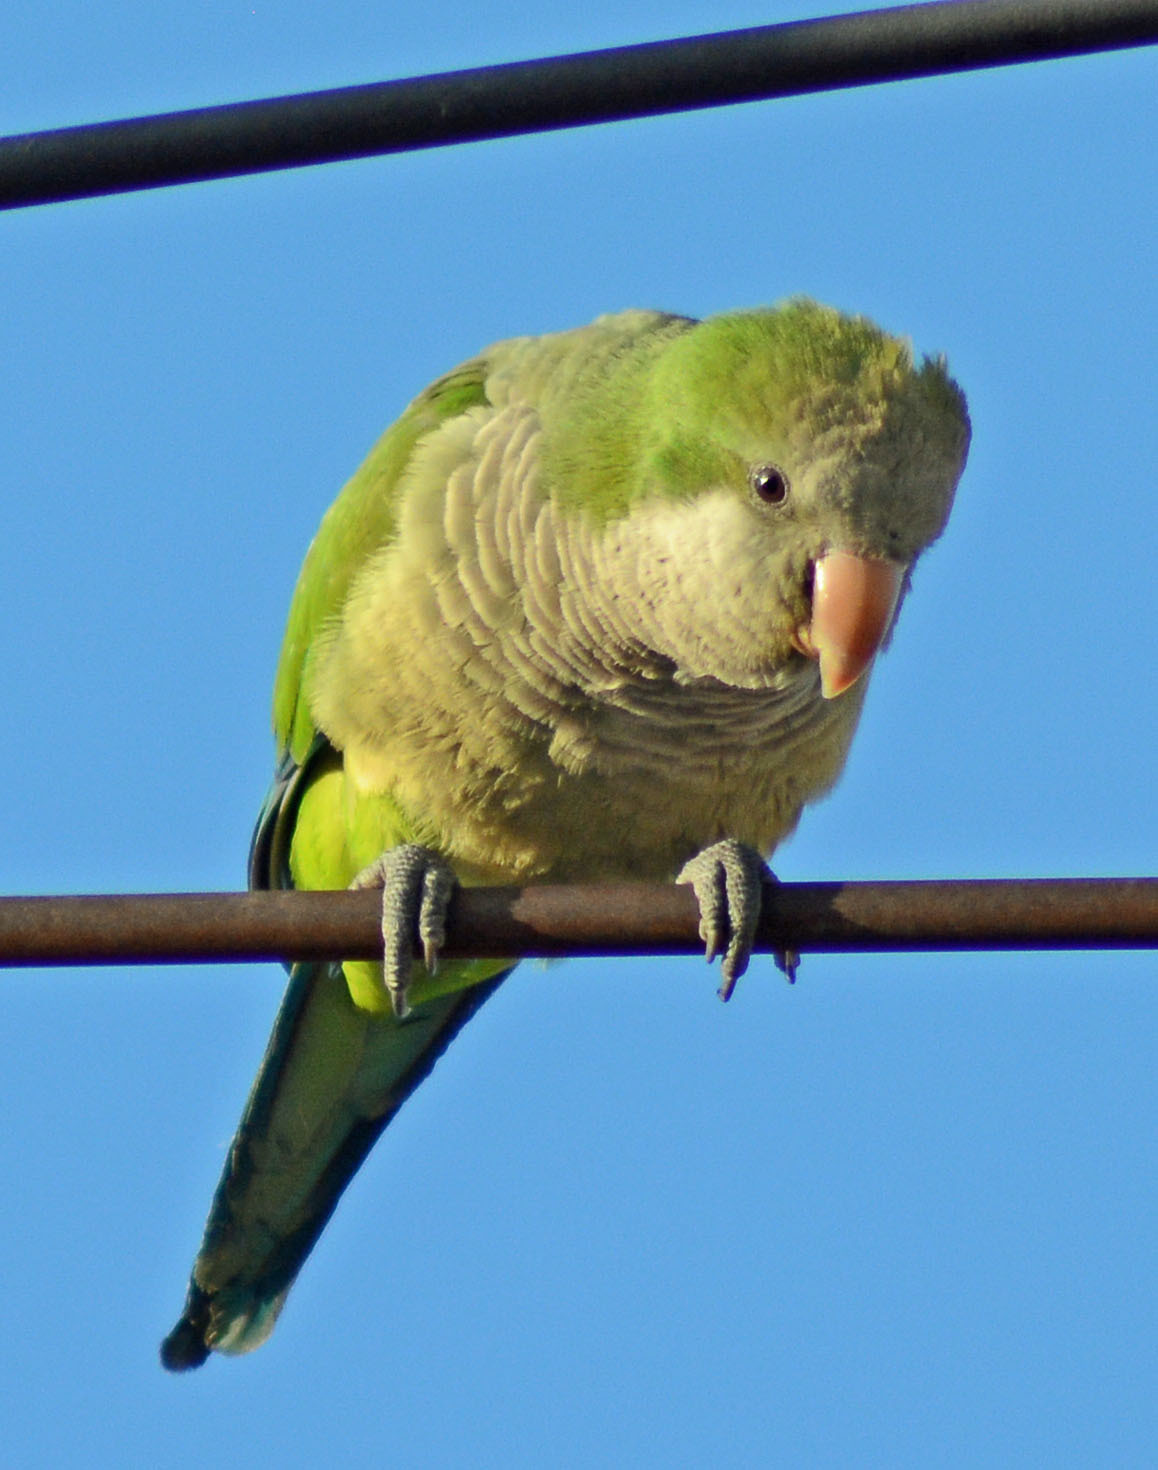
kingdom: Animalia
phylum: Chordata
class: Aves
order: Psittaciformes
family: Psittacidae
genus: Myiopsitta
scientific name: Myiopsitta monachus
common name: Monk parakeet
